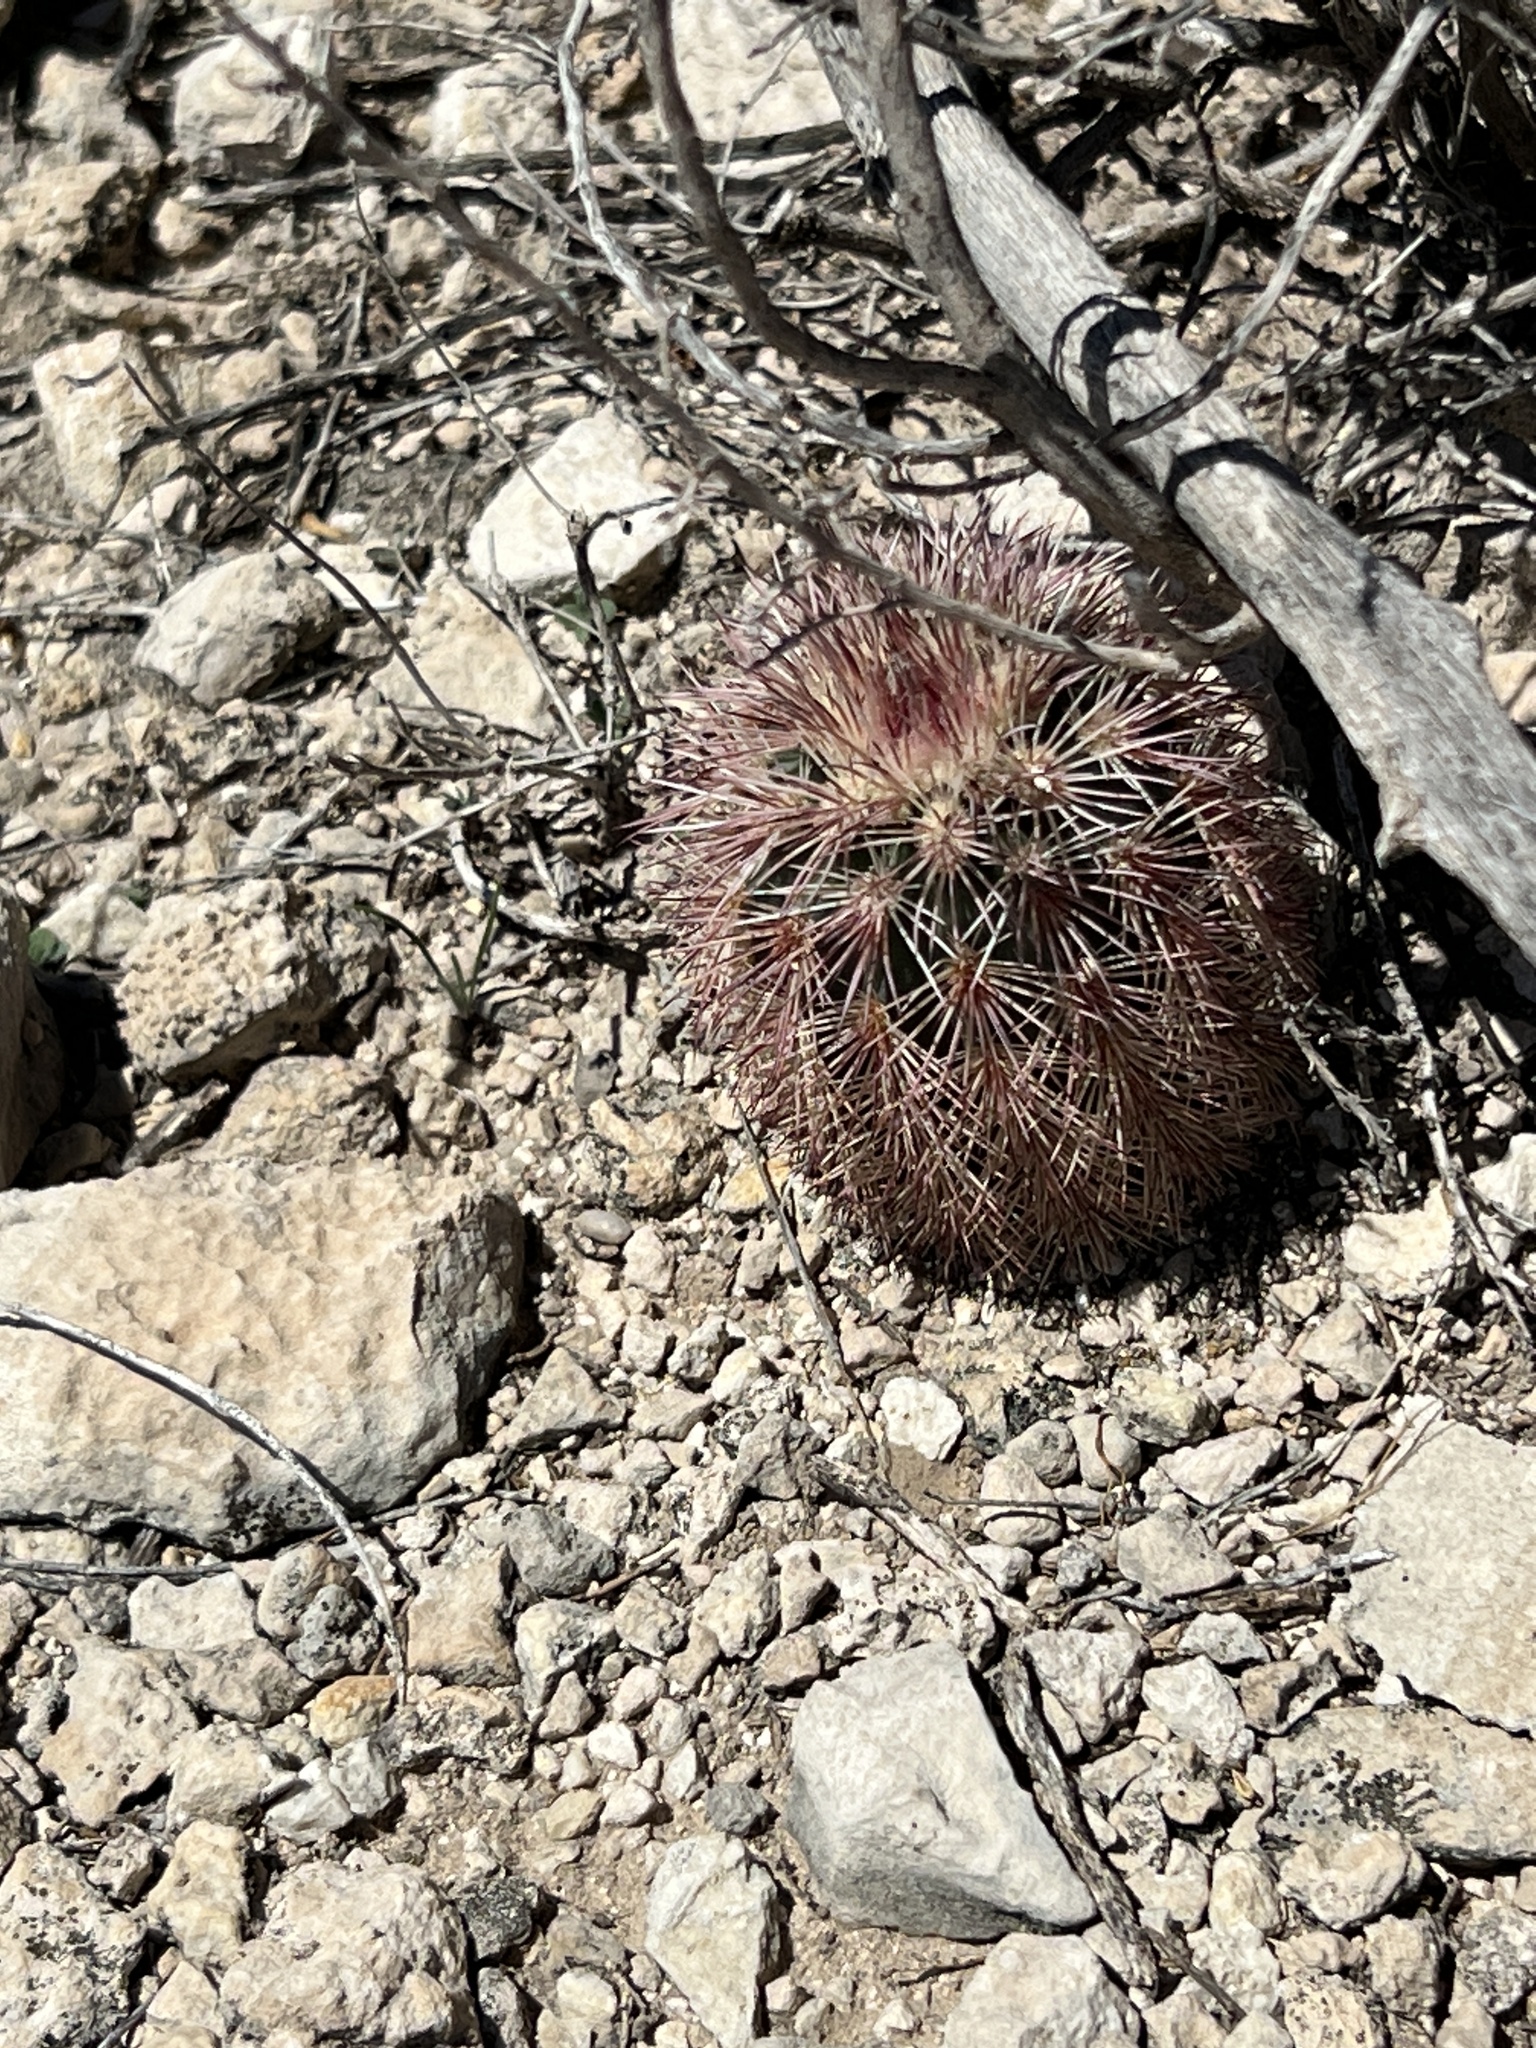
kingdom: Plantae
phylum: Tracheophyta
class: Magnoliopsida
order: Caryophyllales
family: Cactaceae
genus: Echinocereus
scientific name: Echinocereus dasyacanthus
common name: Spiny hedgehog cactus
